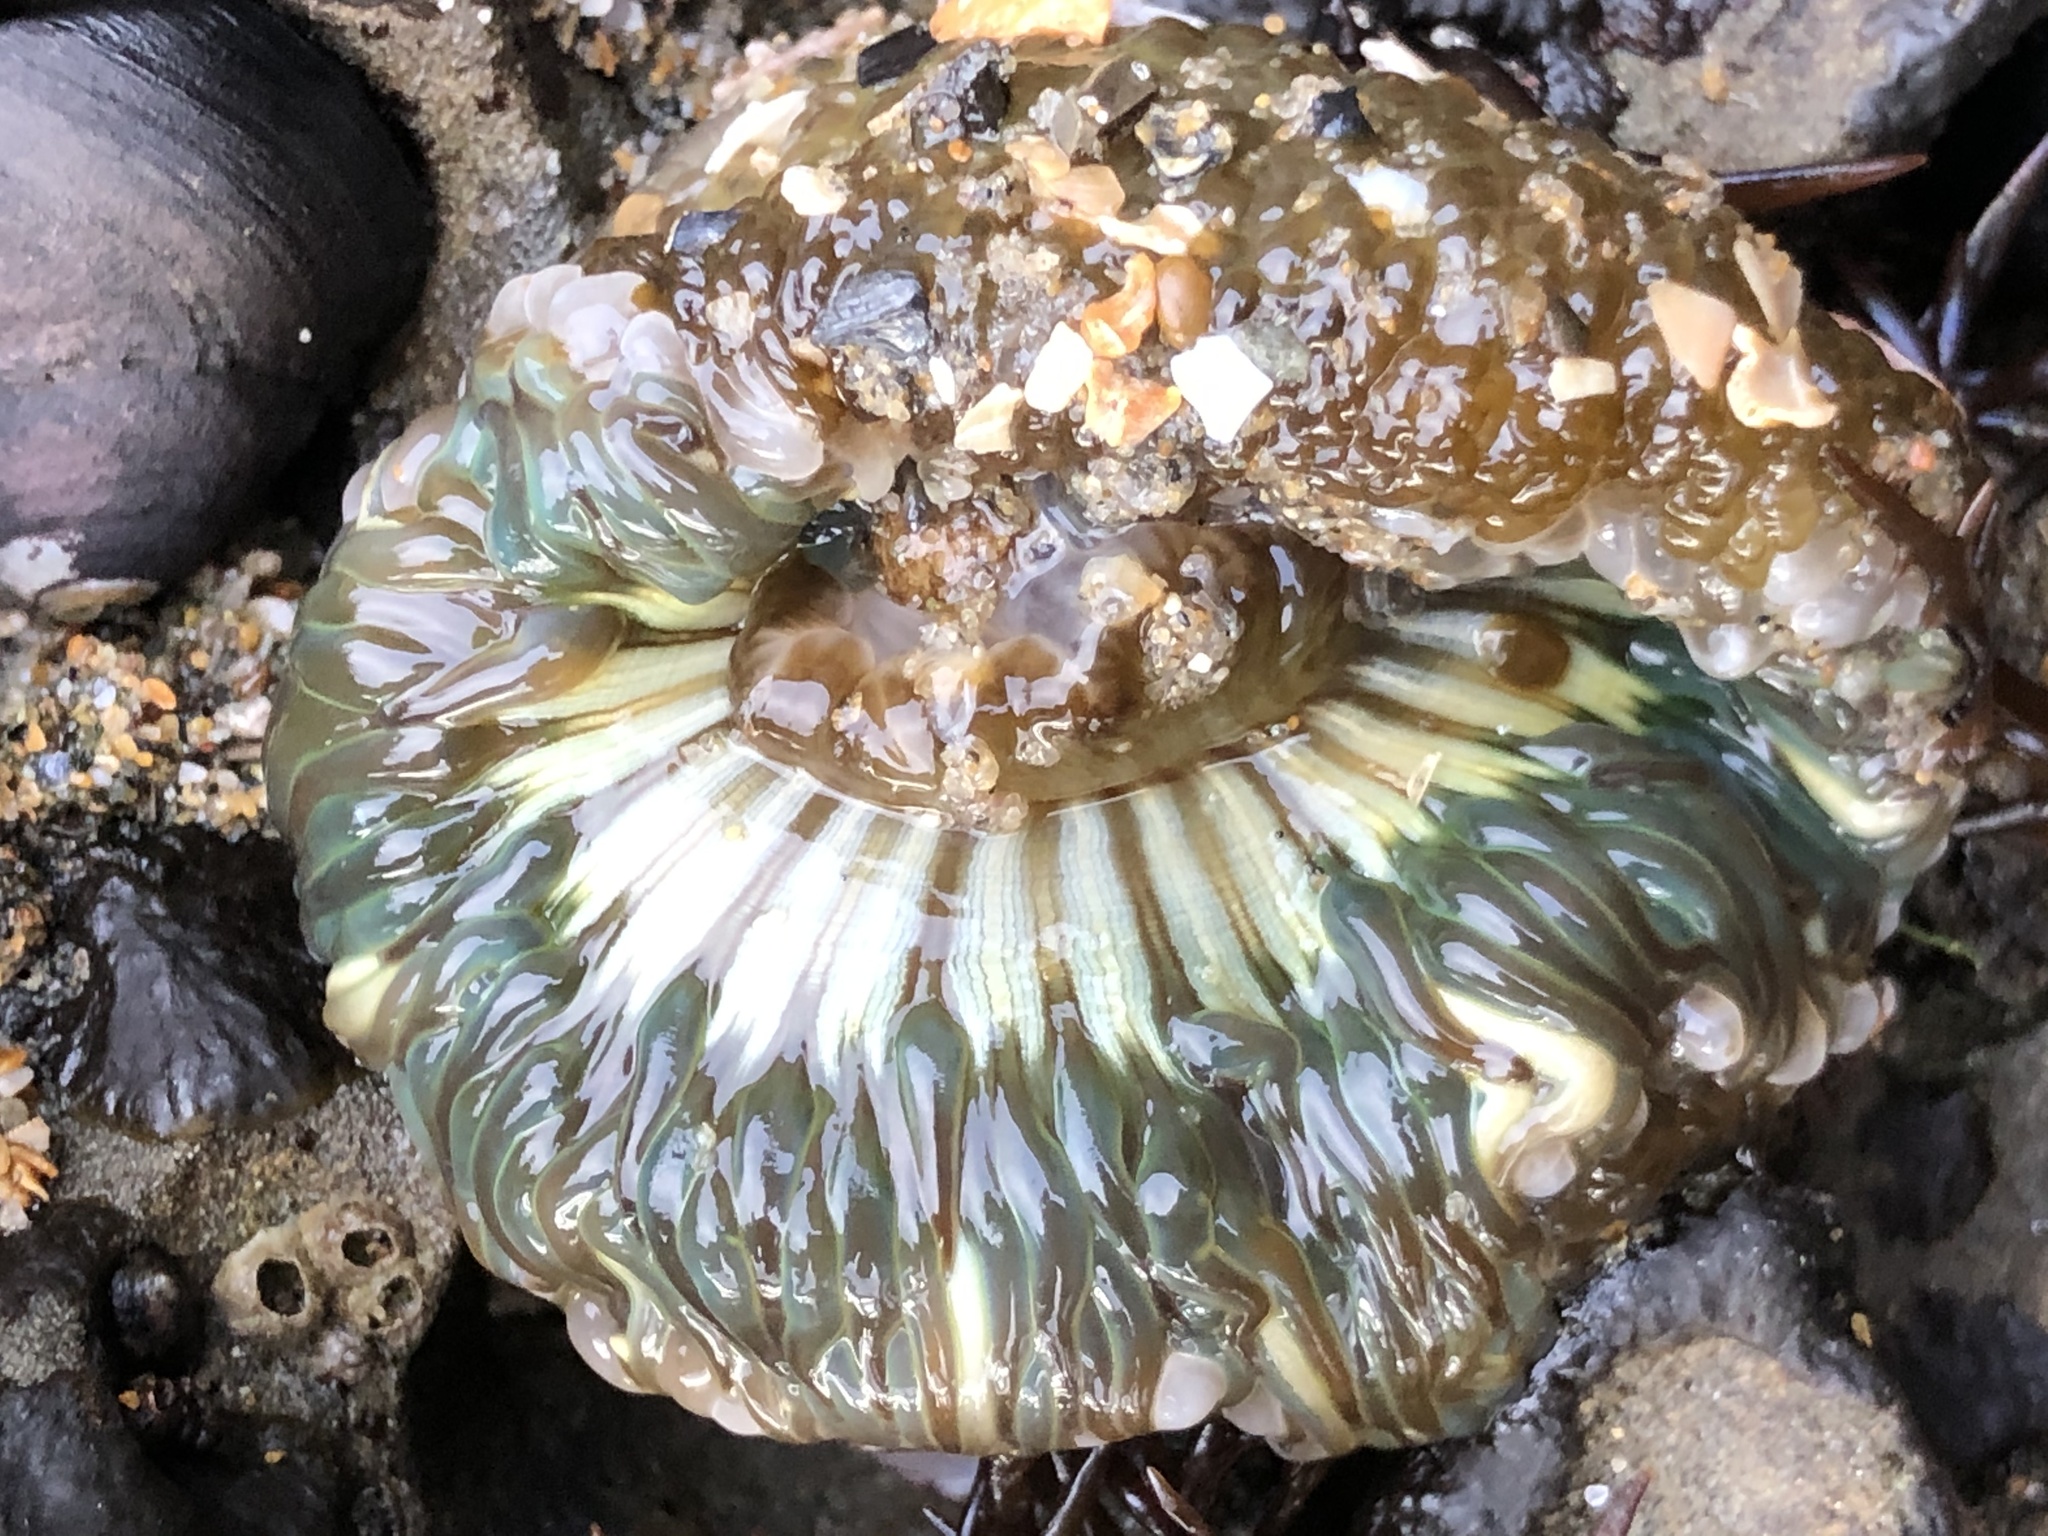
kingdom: Animalia
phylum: Cnidaria
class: Anthozoa
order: Actiniaria
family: Actiniidae
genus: Anthopleura
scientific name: Anthopleura sola
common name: Sun anemone
